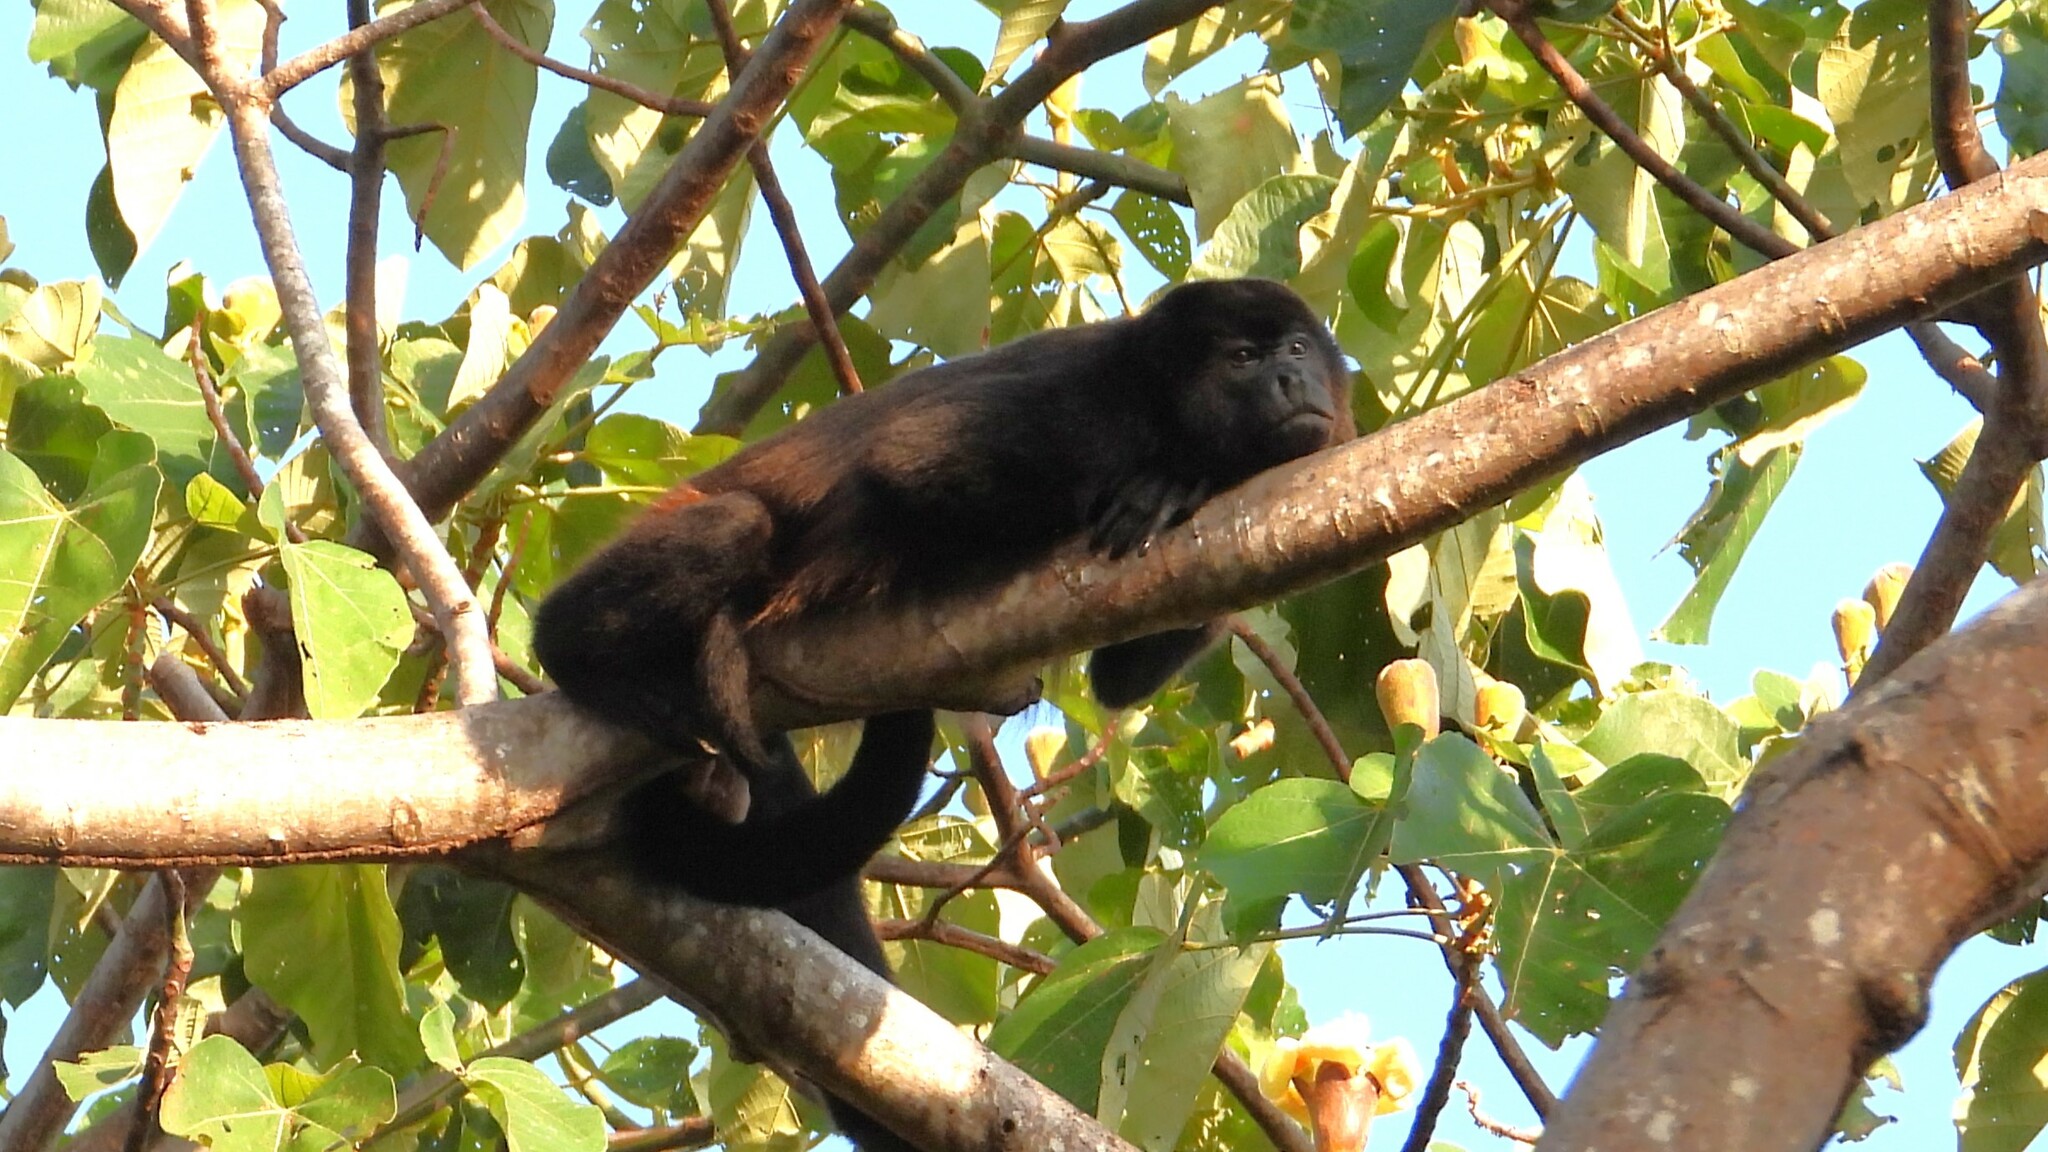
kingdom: Animalia
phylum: Chordata
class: Mammalia
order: Primates
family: Atelidae
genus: Alouatta
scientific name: Alouatta palliata
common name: Mantled howler
